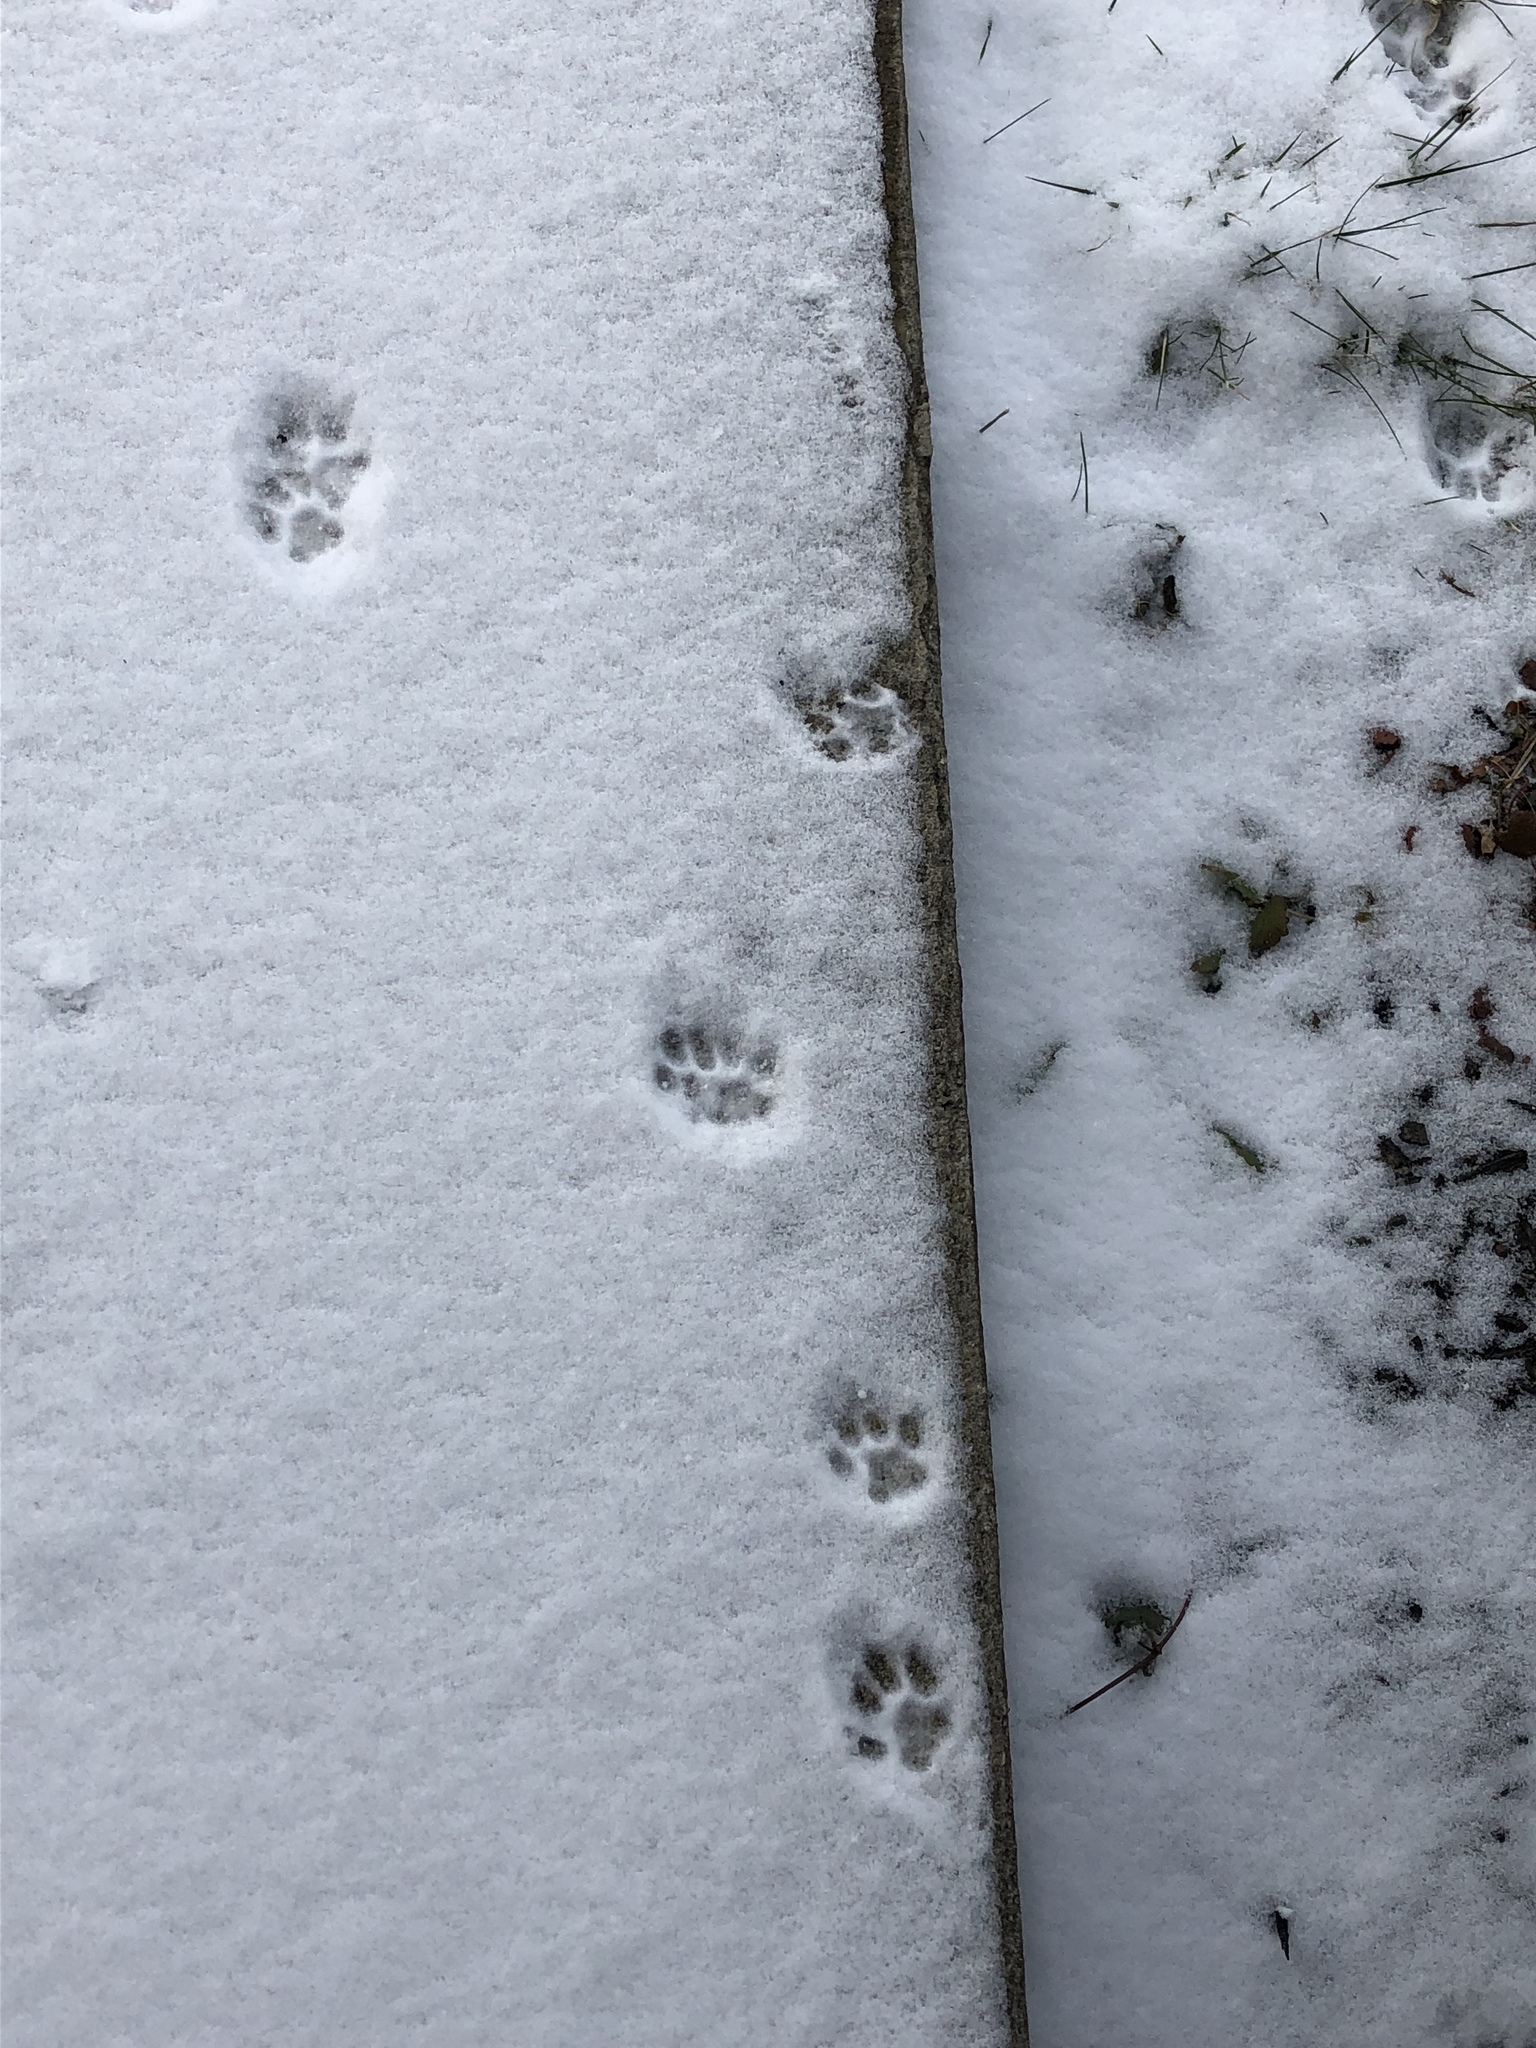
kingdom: Animalia
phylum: Chordata
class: Mammalia
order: Carnivora
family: Felidae
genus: Felis
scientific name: Felis catus
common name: Domestic cat
